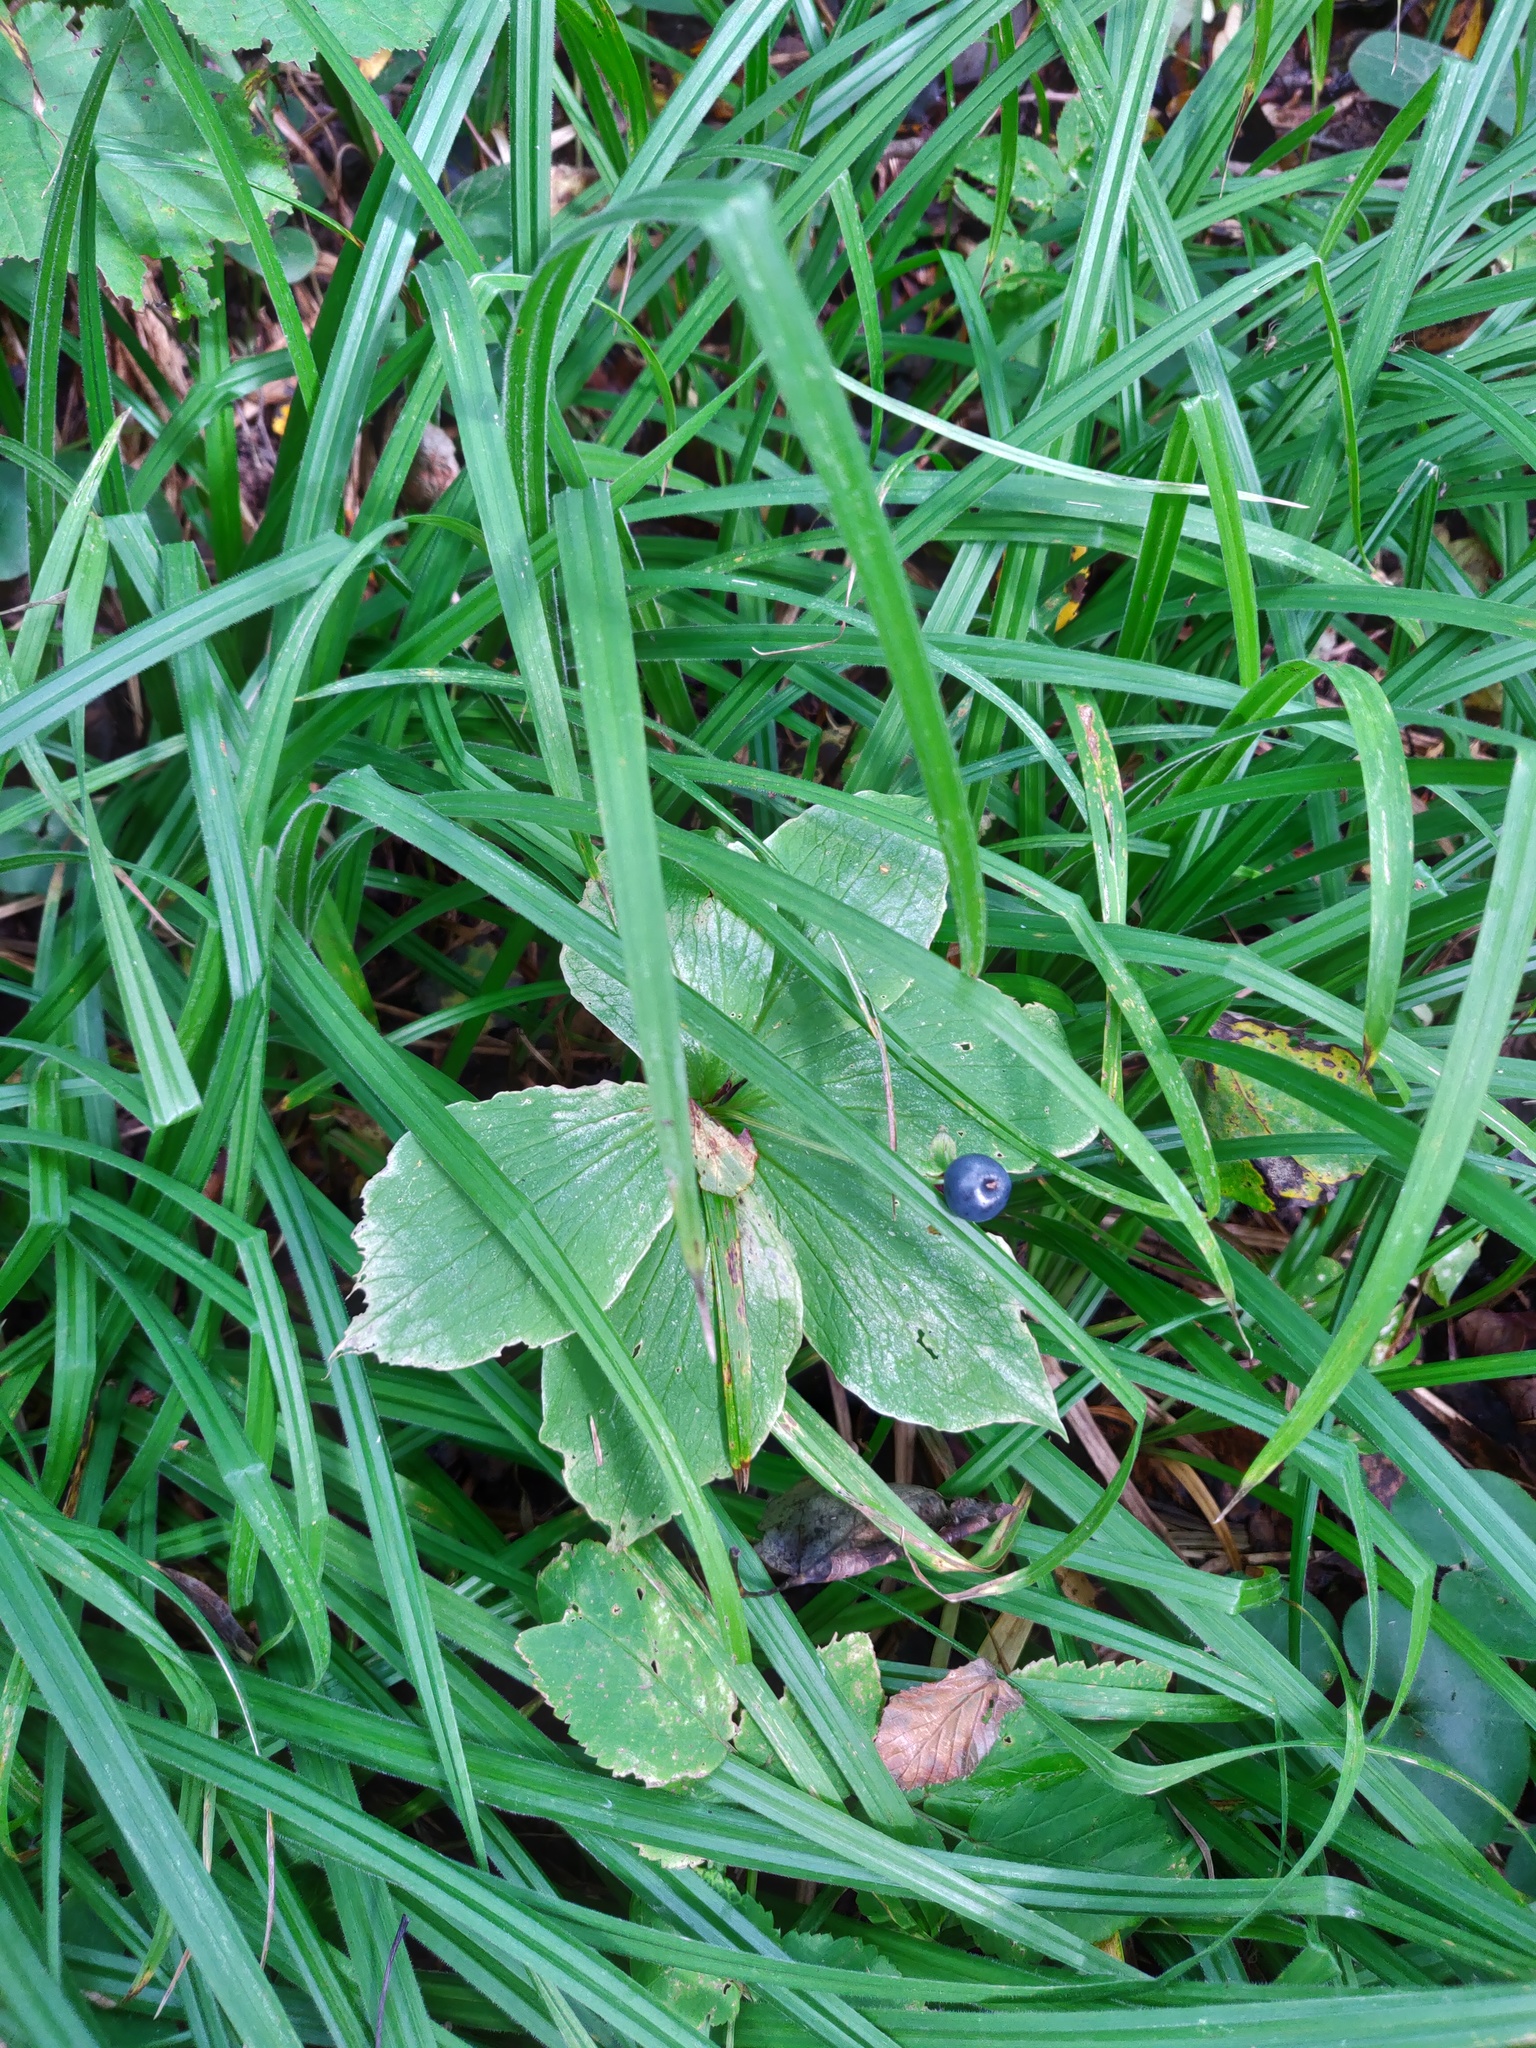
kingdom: Plantae
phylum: Tracheophyta
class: Liliopsida
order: Liliales
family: Melanthiaceae
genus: Paris
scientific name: Paris quadrifolia
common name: Herb-paris
